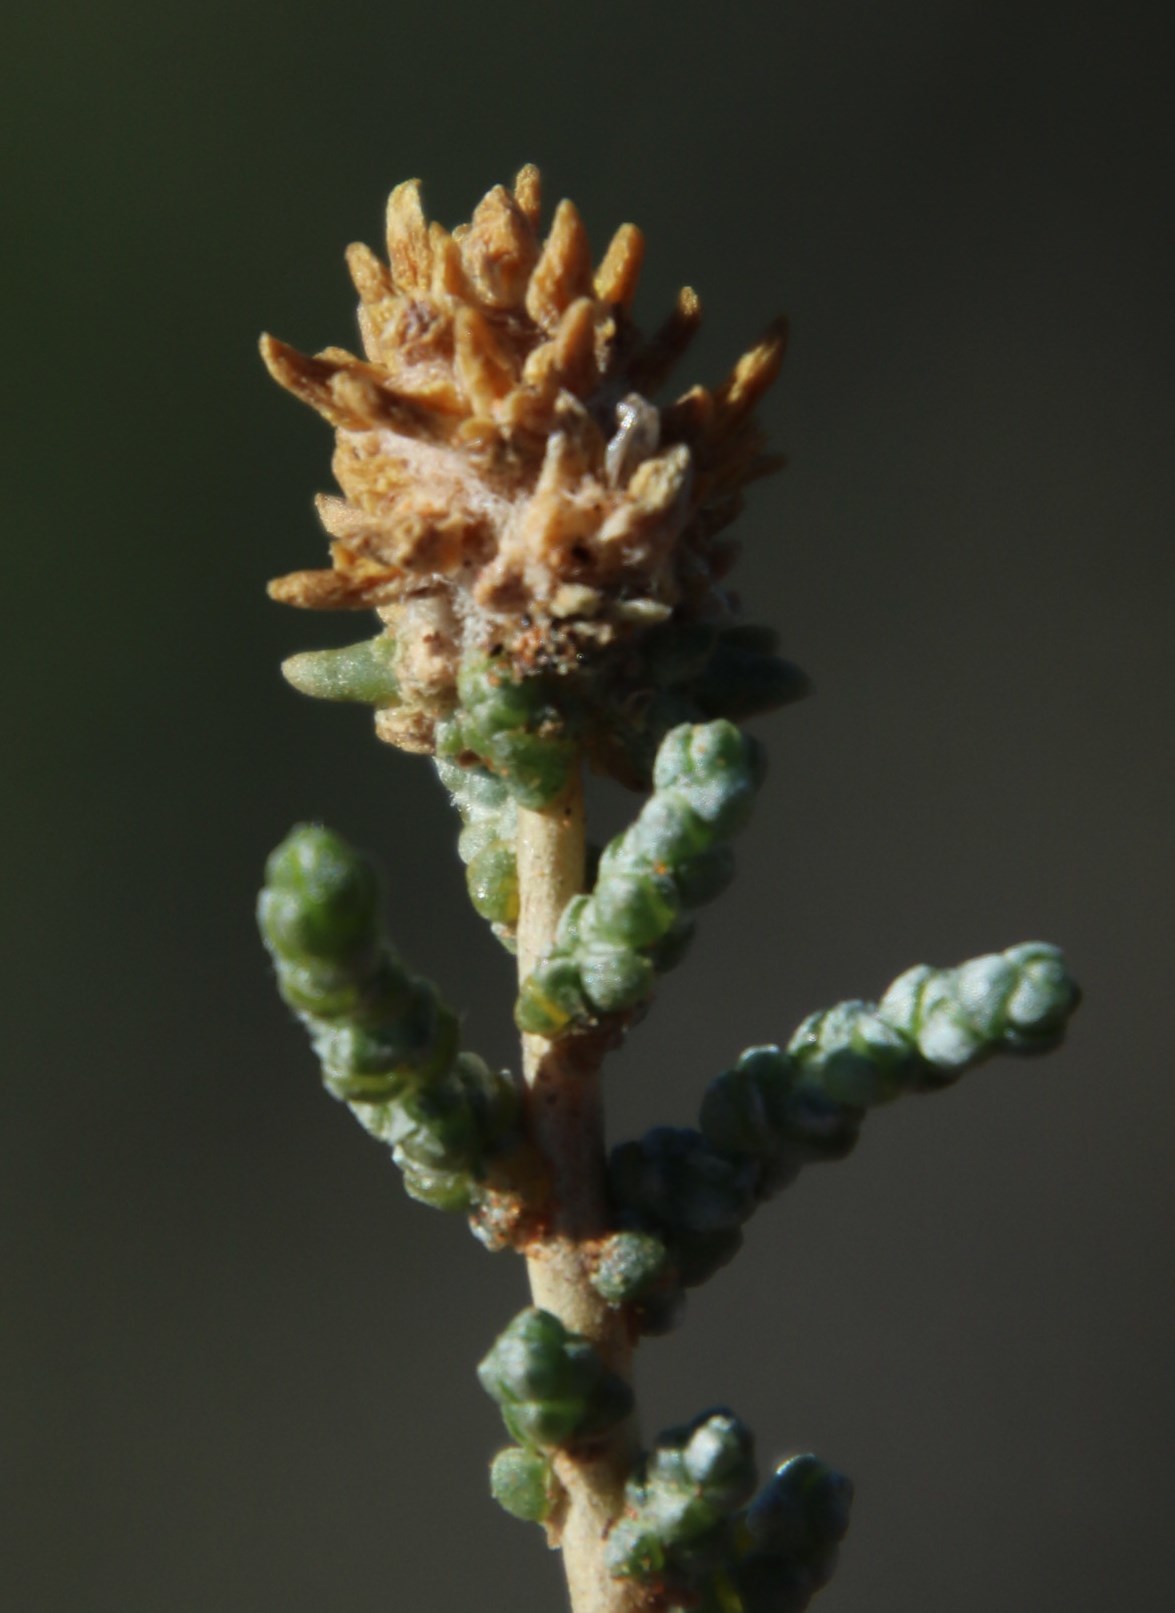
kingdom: Plantae
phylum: Tracheophyta
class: Magnoliopsida
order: Caryophyllales
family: Amaranthaceae
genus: Caroxylon
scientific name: Caroxylon aphyllum
